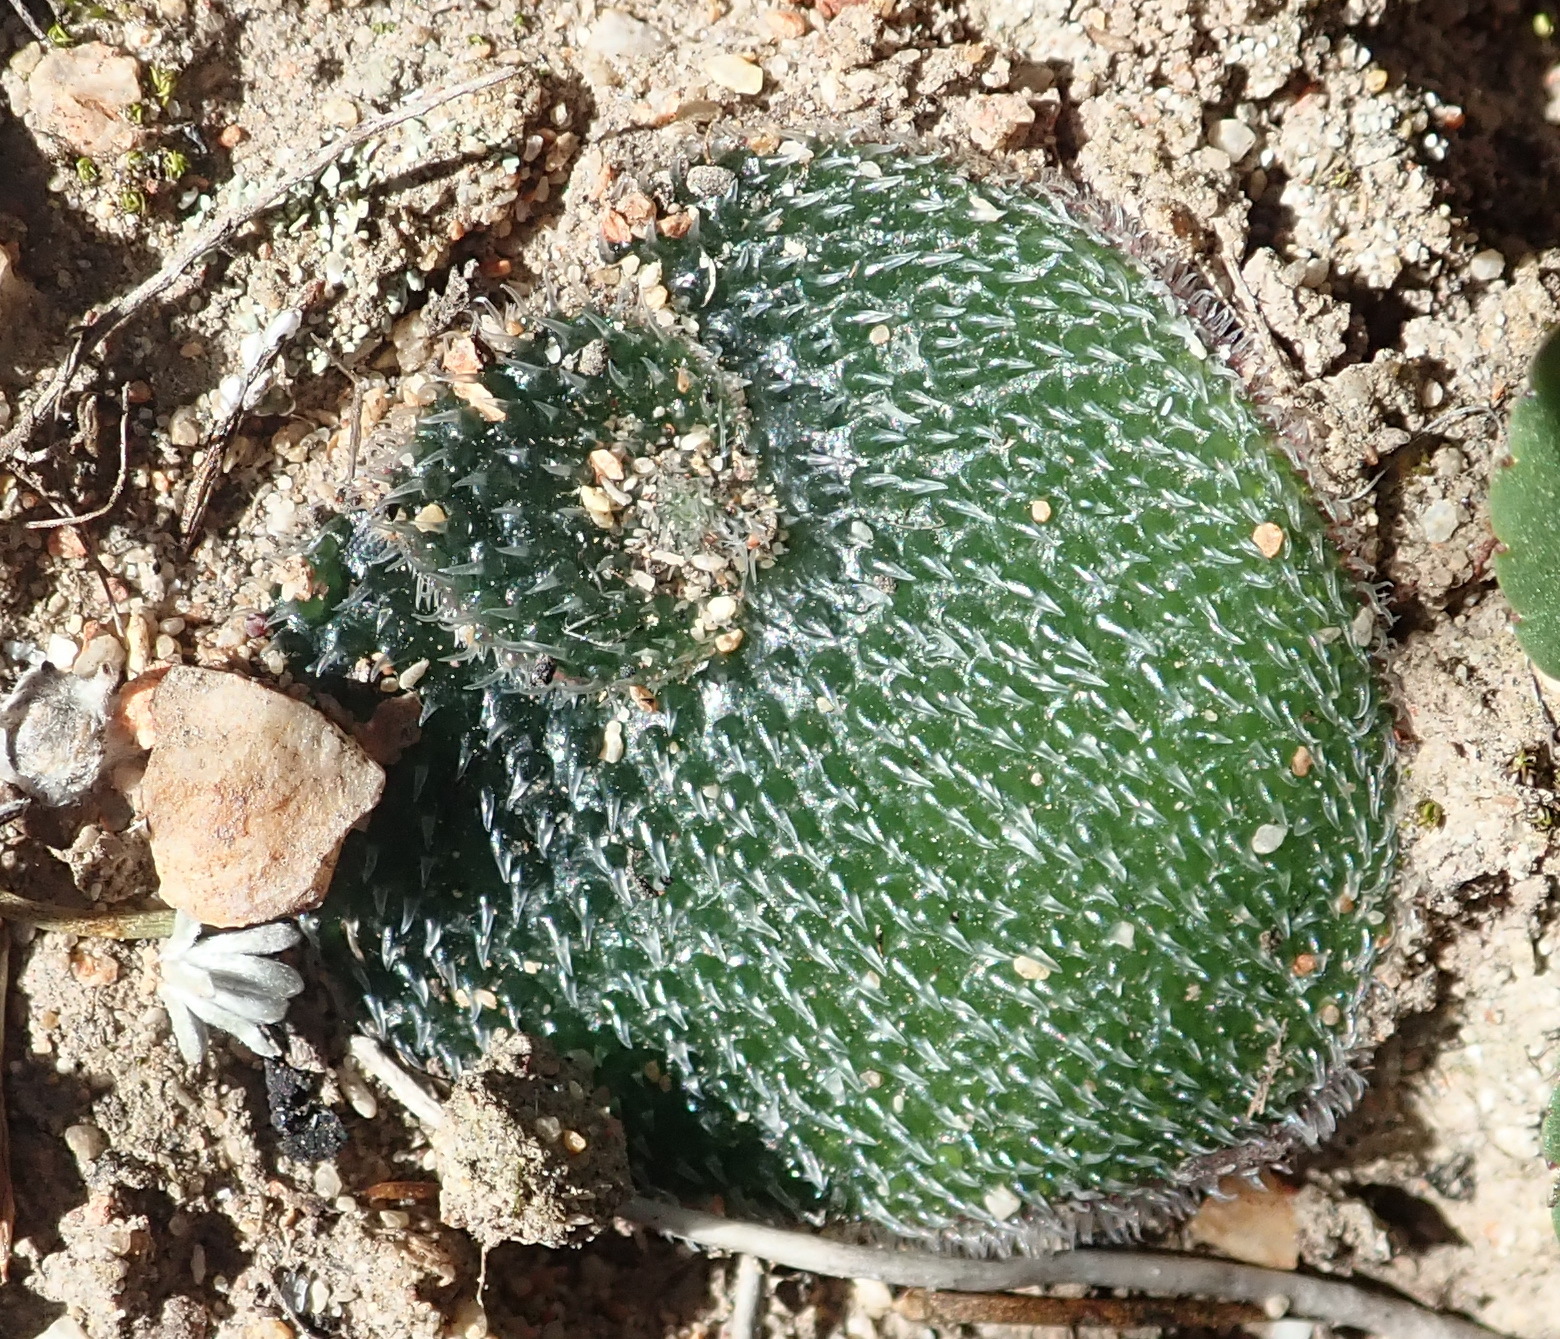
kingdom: Plantae
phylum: Tracheophyta
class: Liliopsida
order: Asparagales
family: Orchidaceae
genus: Holothrix
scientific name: Holothrix cernua
